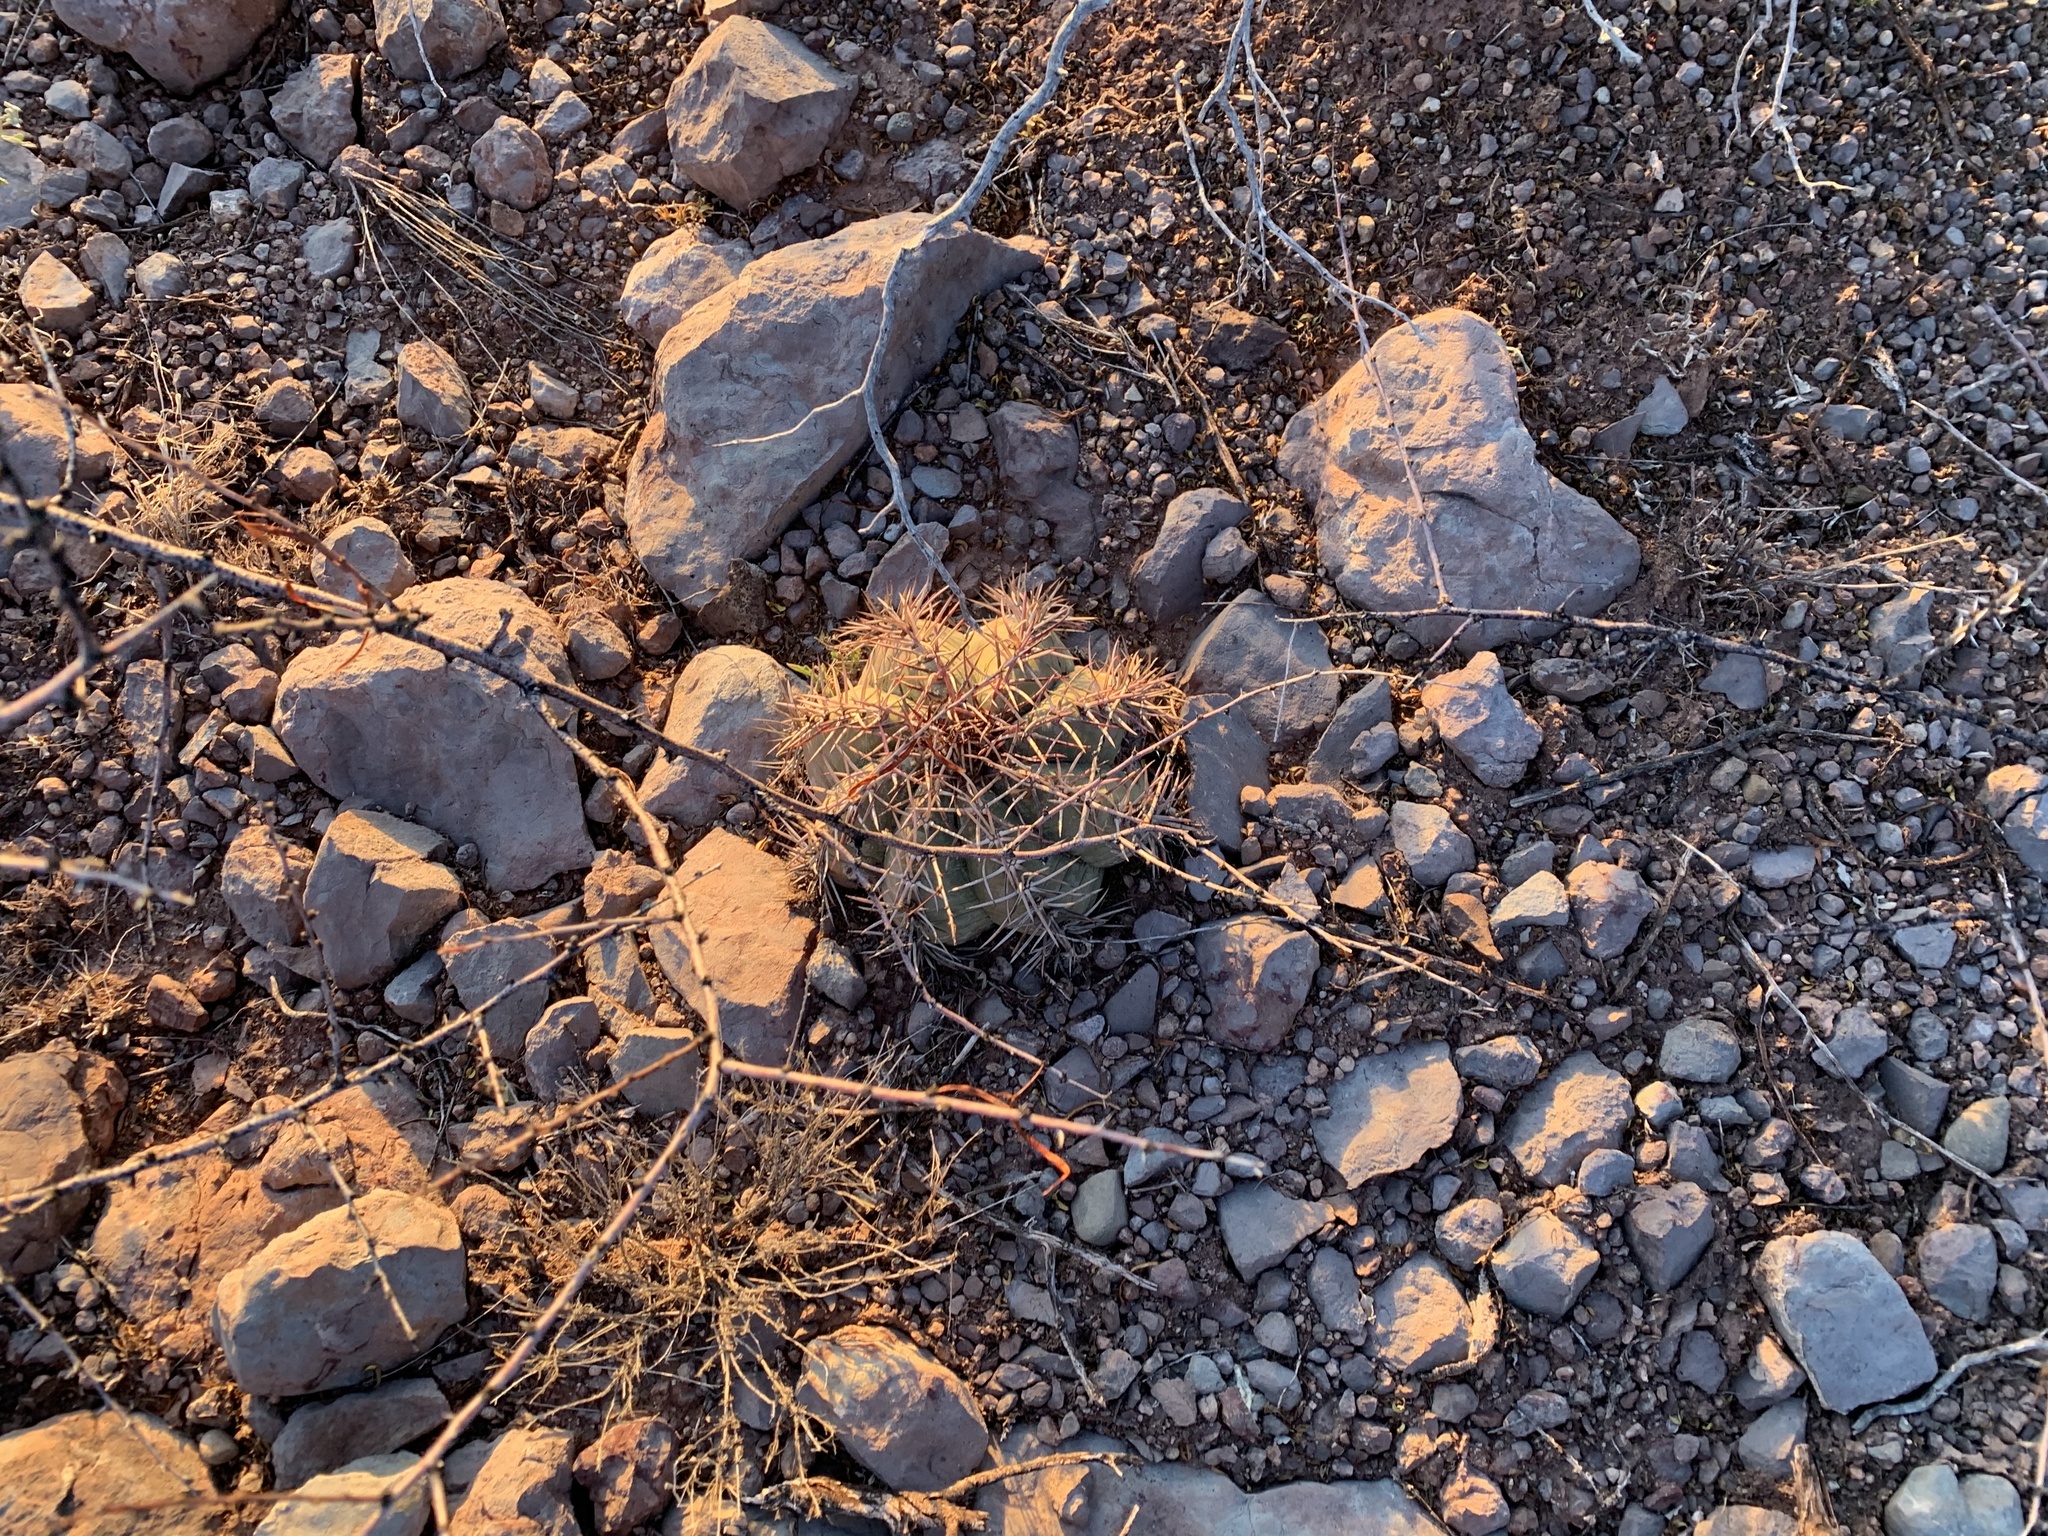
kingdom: Plantae
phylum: Tracheophyta
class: Magnoliopsida
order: Caryophyllales
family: Cactaceae
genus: Echinocactus
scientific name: Echinocactus horizonthalonius
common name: Devilshead
